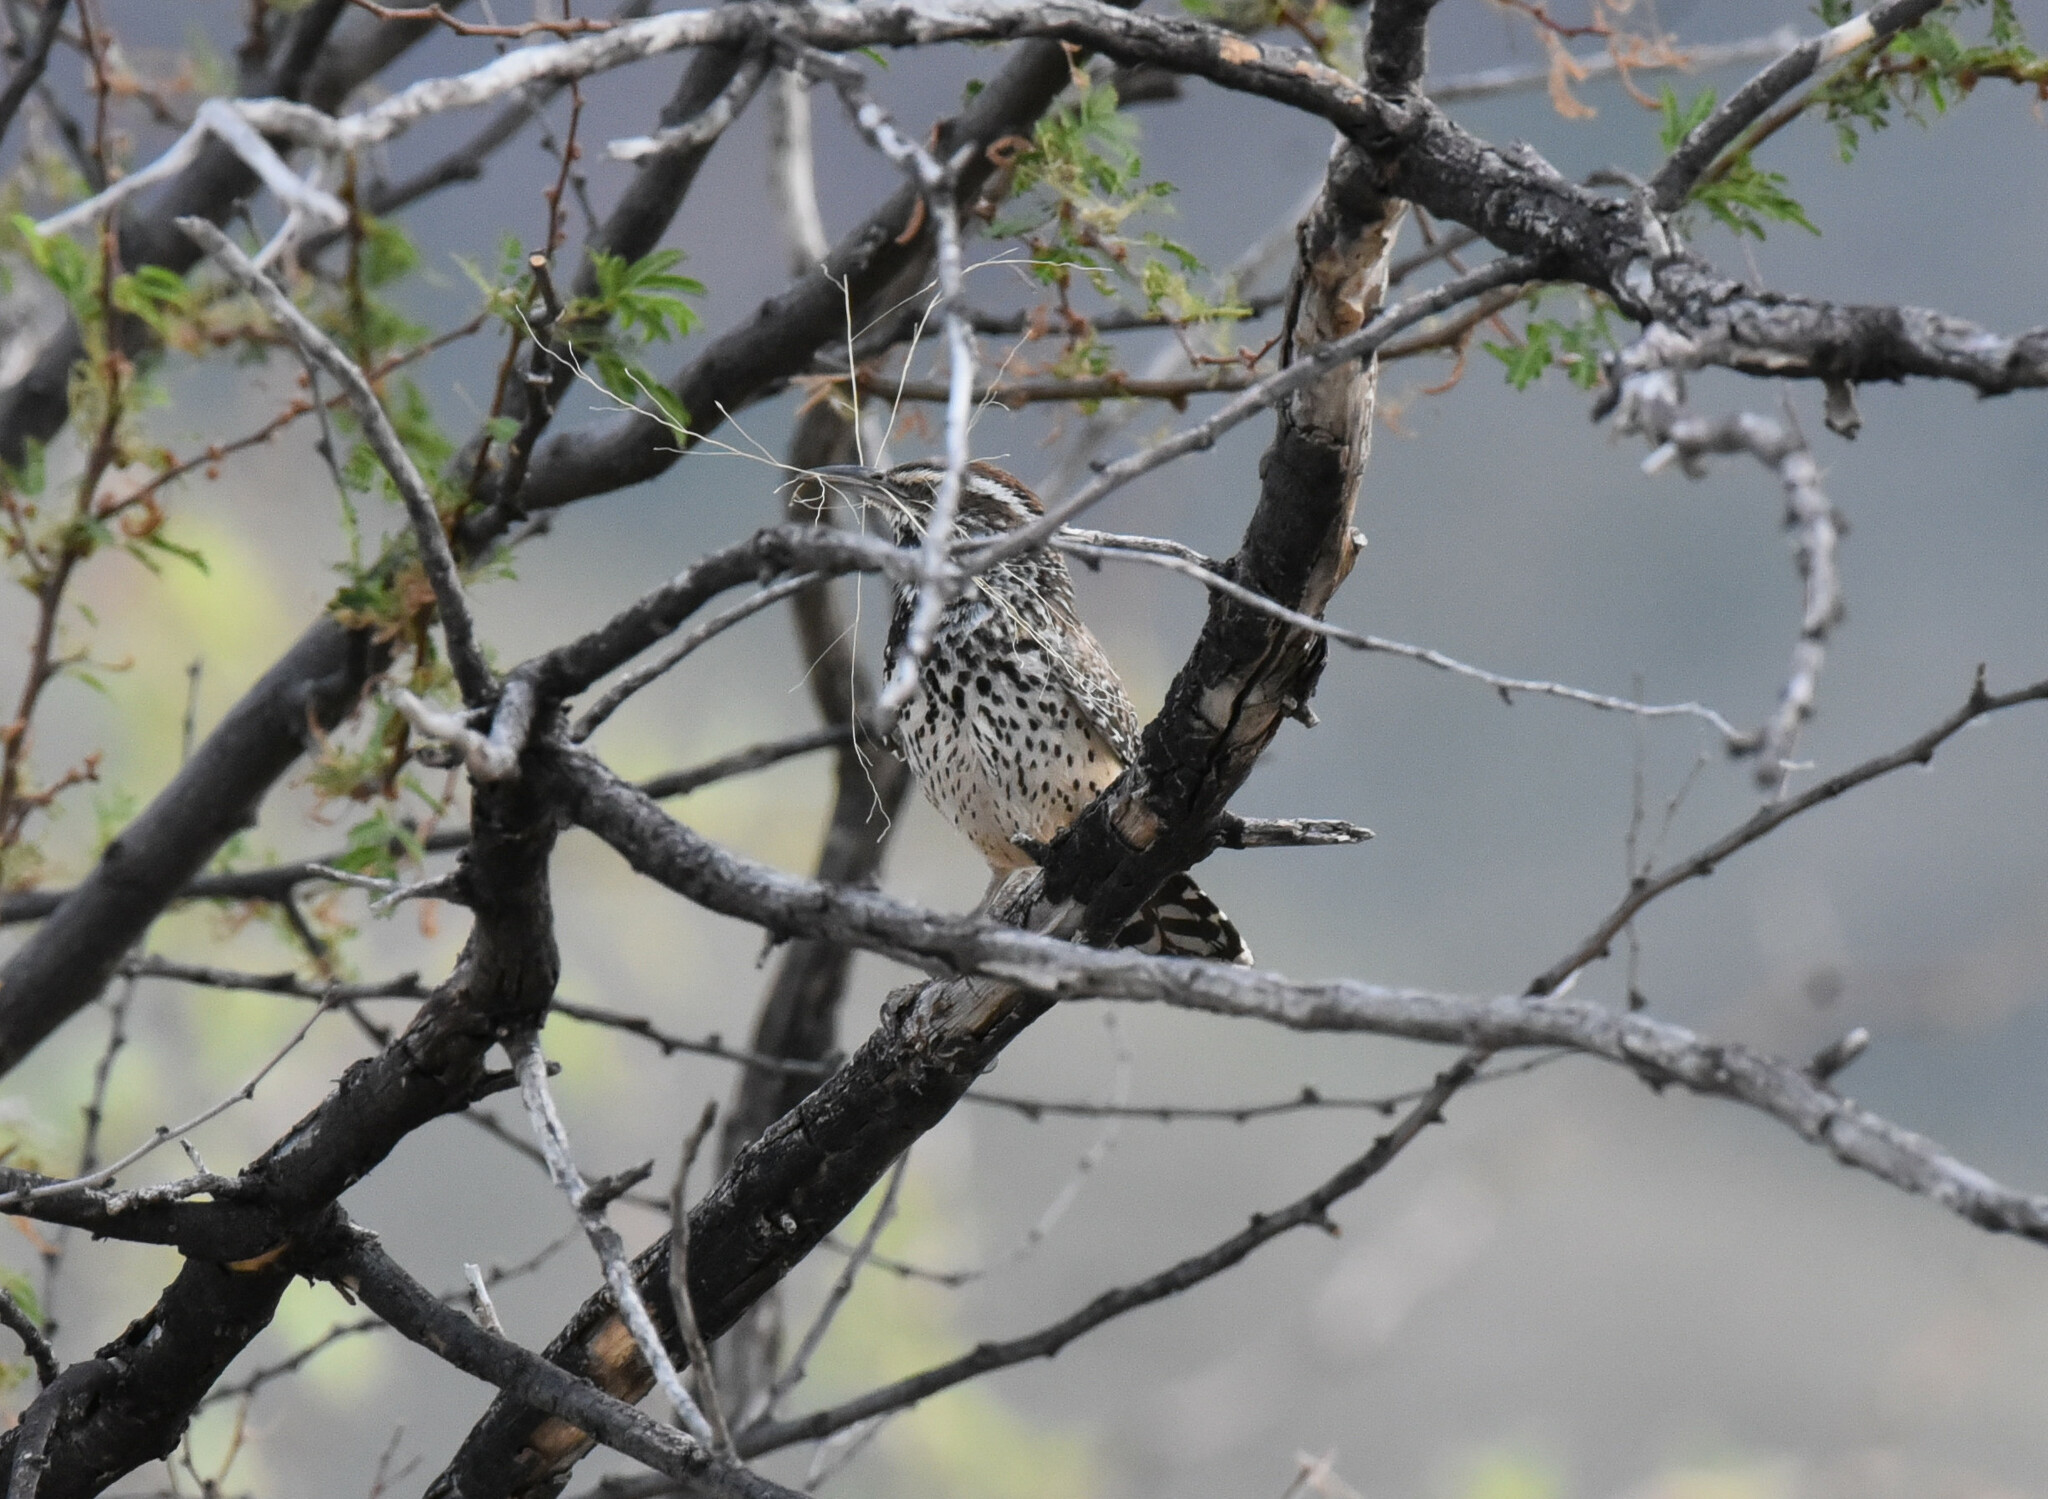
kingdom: Animalia
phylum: Chordata
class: Aves
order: Passeriformes
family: Troglodytidae
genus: Campylorhynchus
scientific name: Campylorhynchus brunneicapillus
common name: Cactus wren
